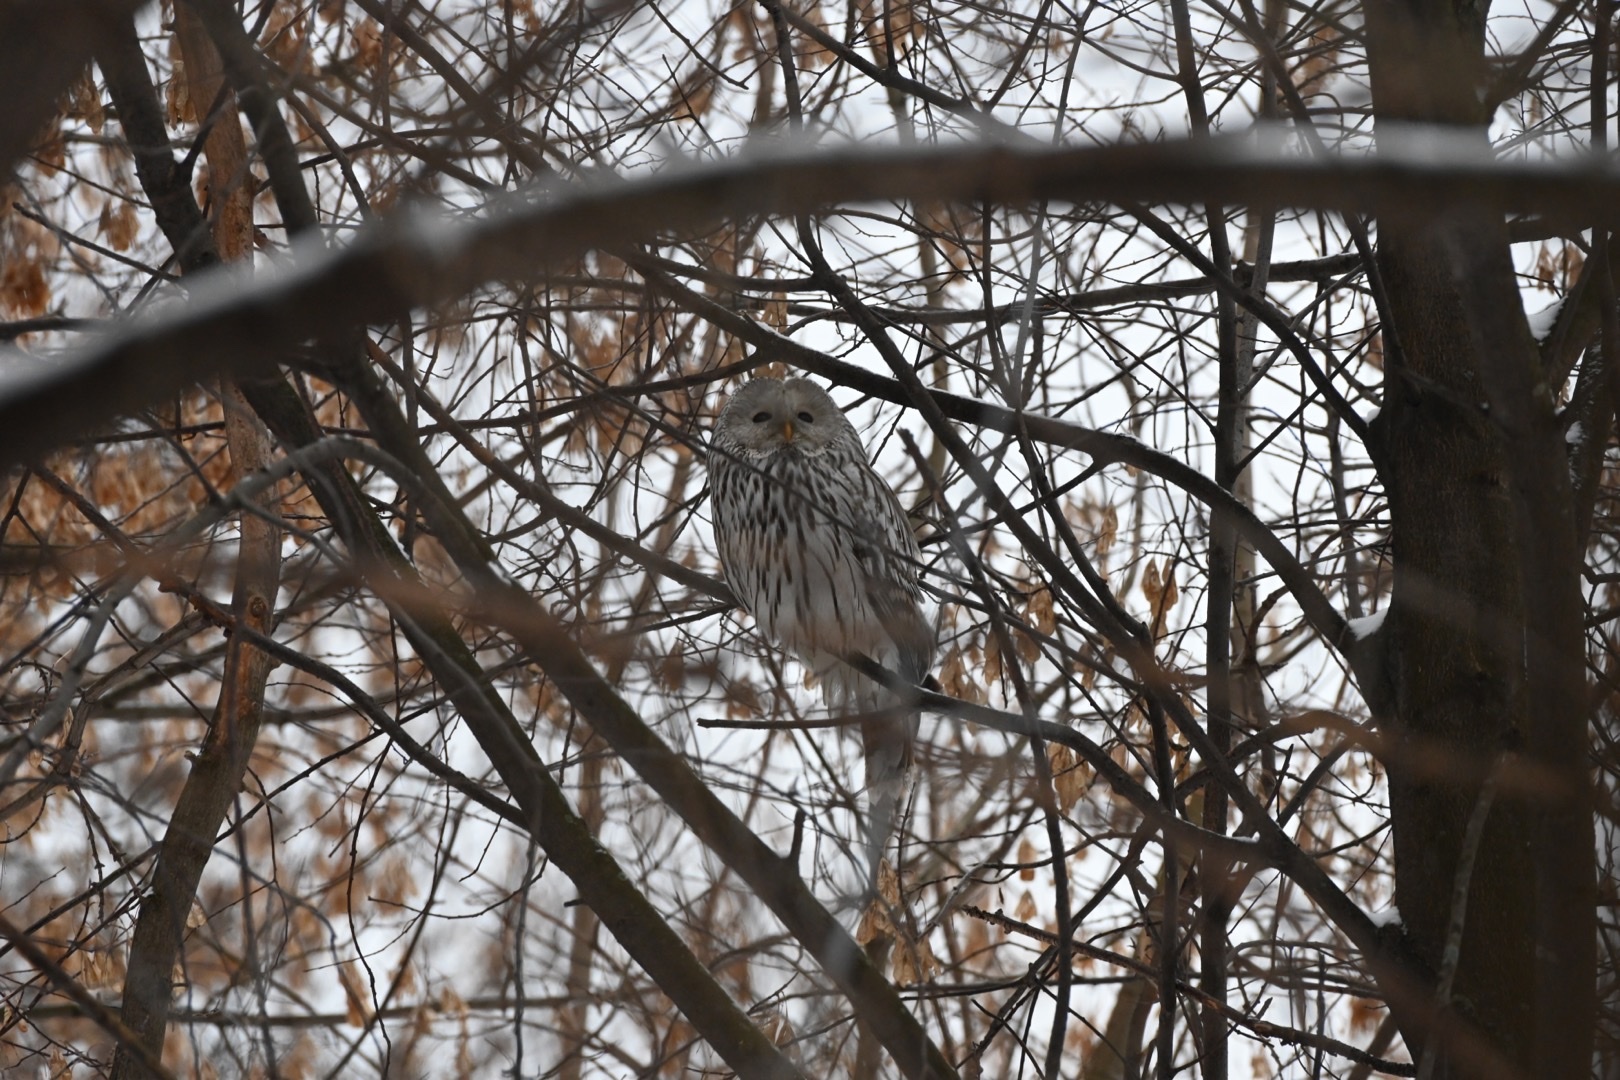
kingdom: Animalia
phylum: Chordata
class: Aves
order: Strigiformes
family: Strigidae
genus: Strix
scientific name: Strix uralensis
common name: Ural owl
